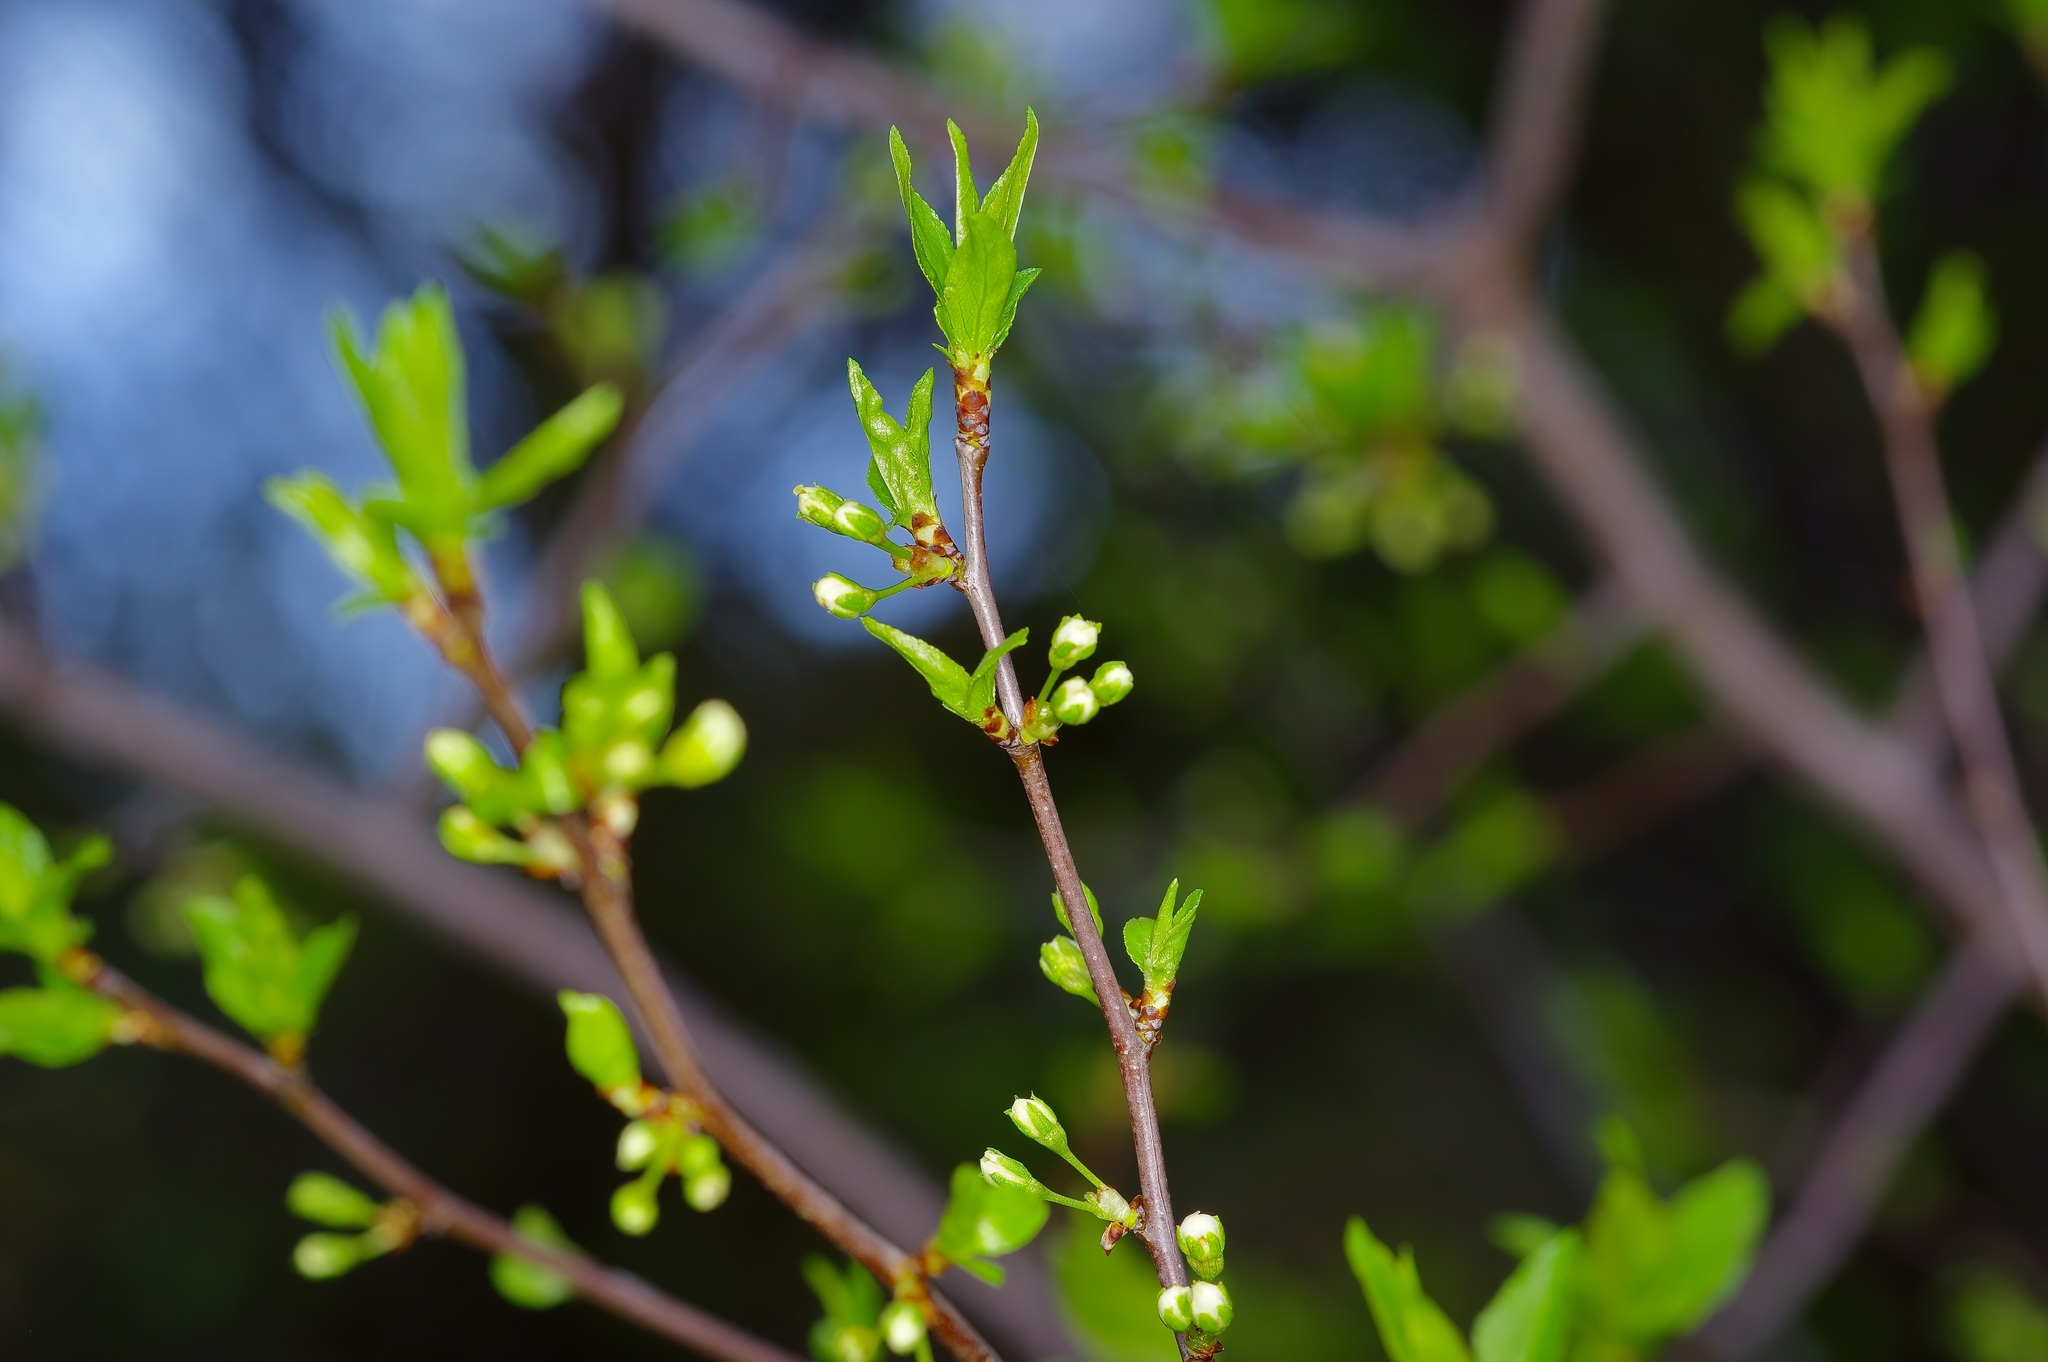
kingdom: Plantae
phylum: Tracheophyta
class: Magnoliopsida
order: Rosales
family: Rosaceae
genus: Prunus
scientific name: Prunus munsoniana
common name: Creek plum
